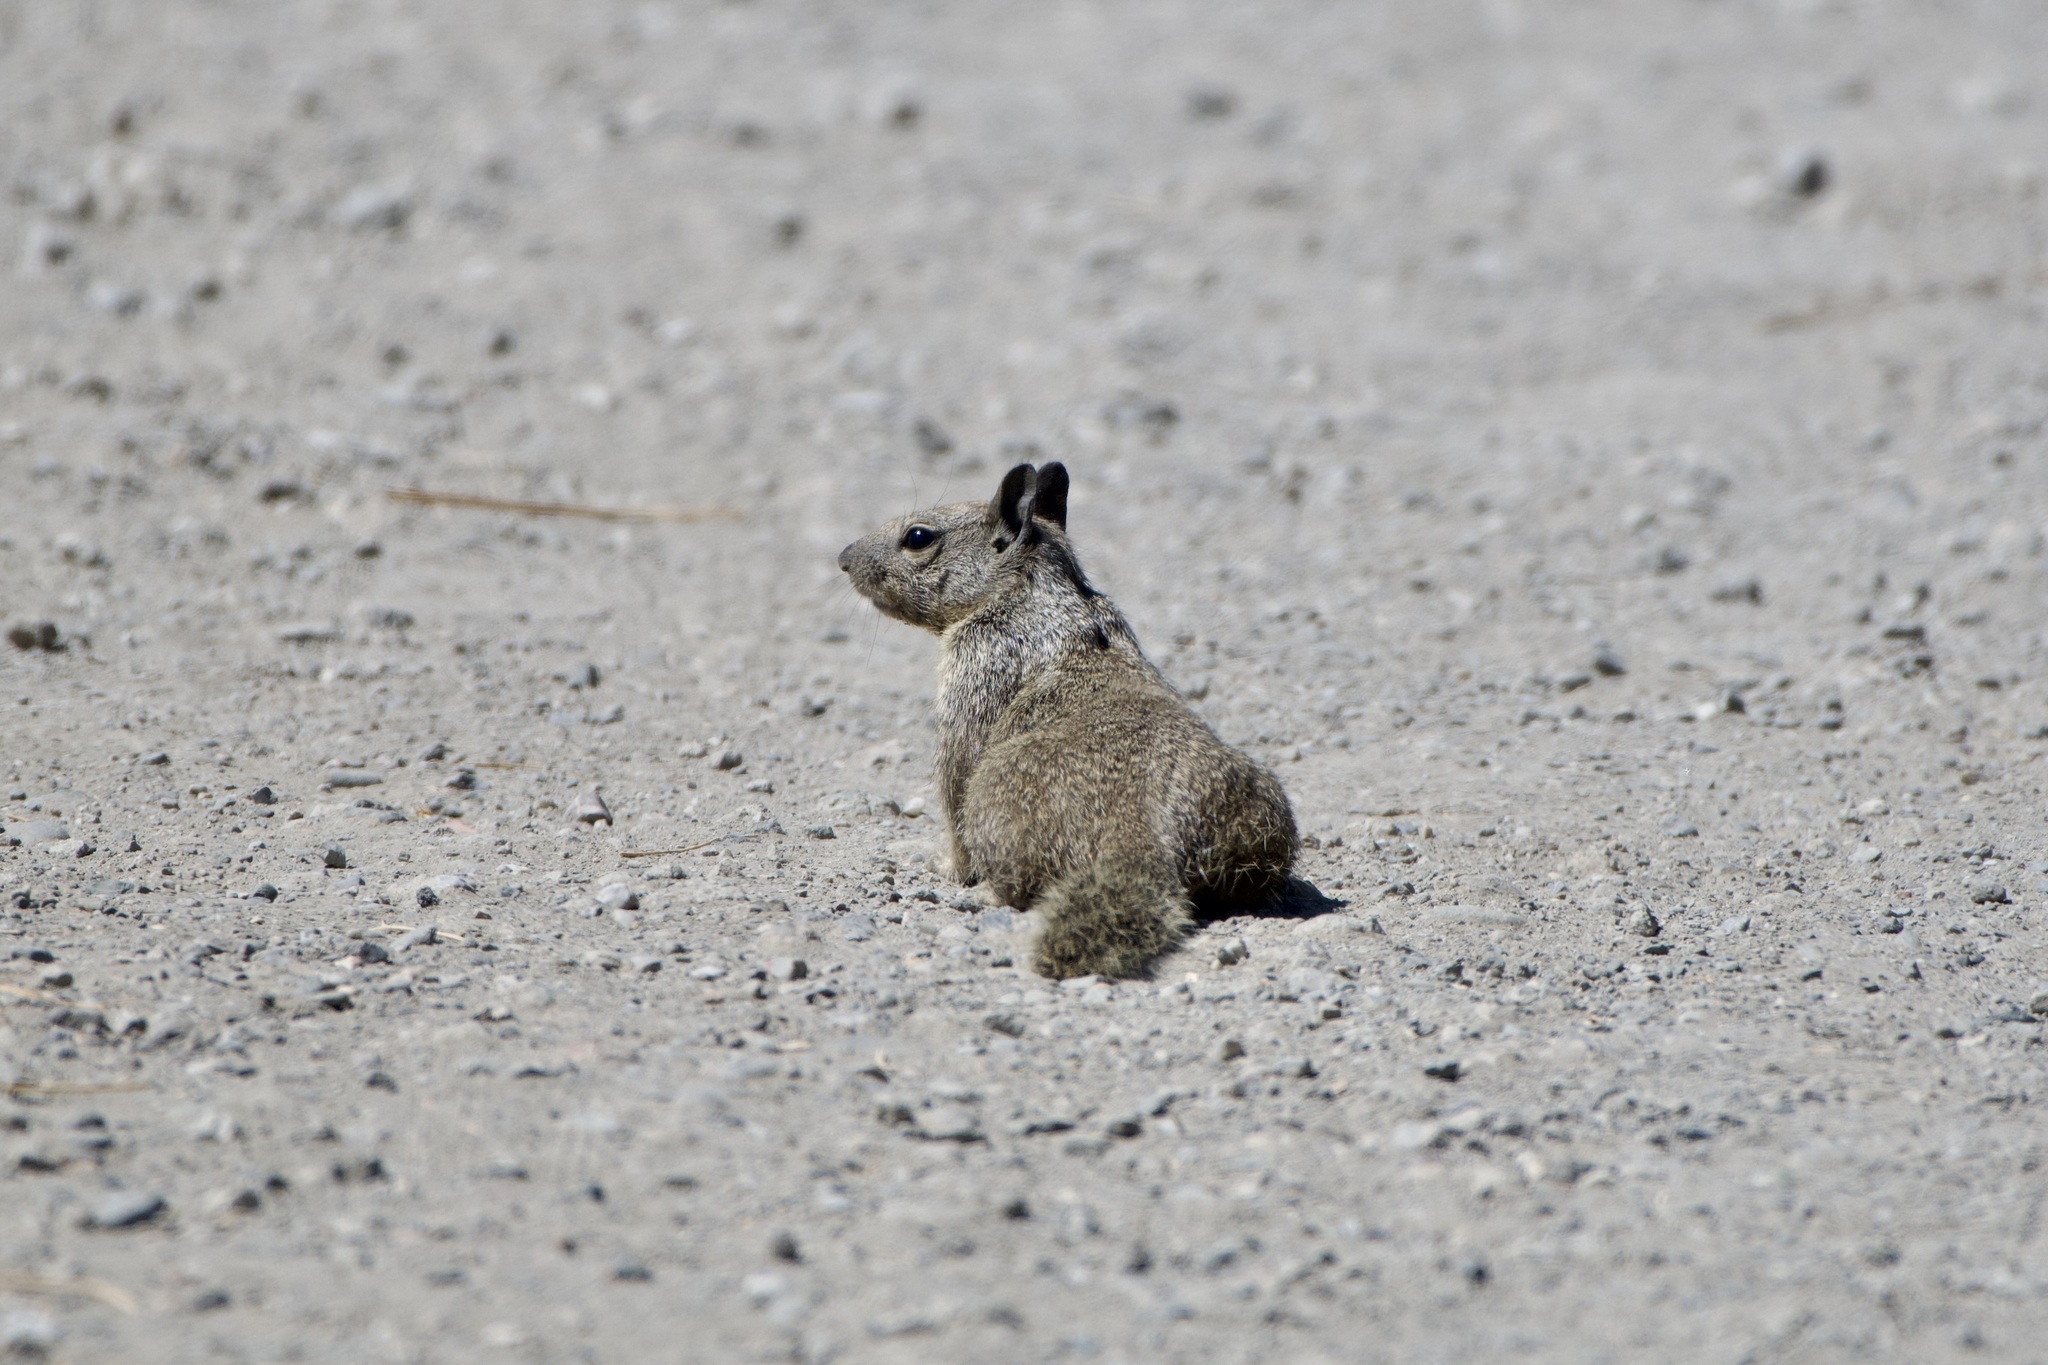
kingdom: Animalia
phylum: Chordata
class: Mammalia
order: Rodentia
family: Sciuridae
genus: Otospermophilus
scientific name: Otospermophilus beecheyi
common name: California ground squirrel
